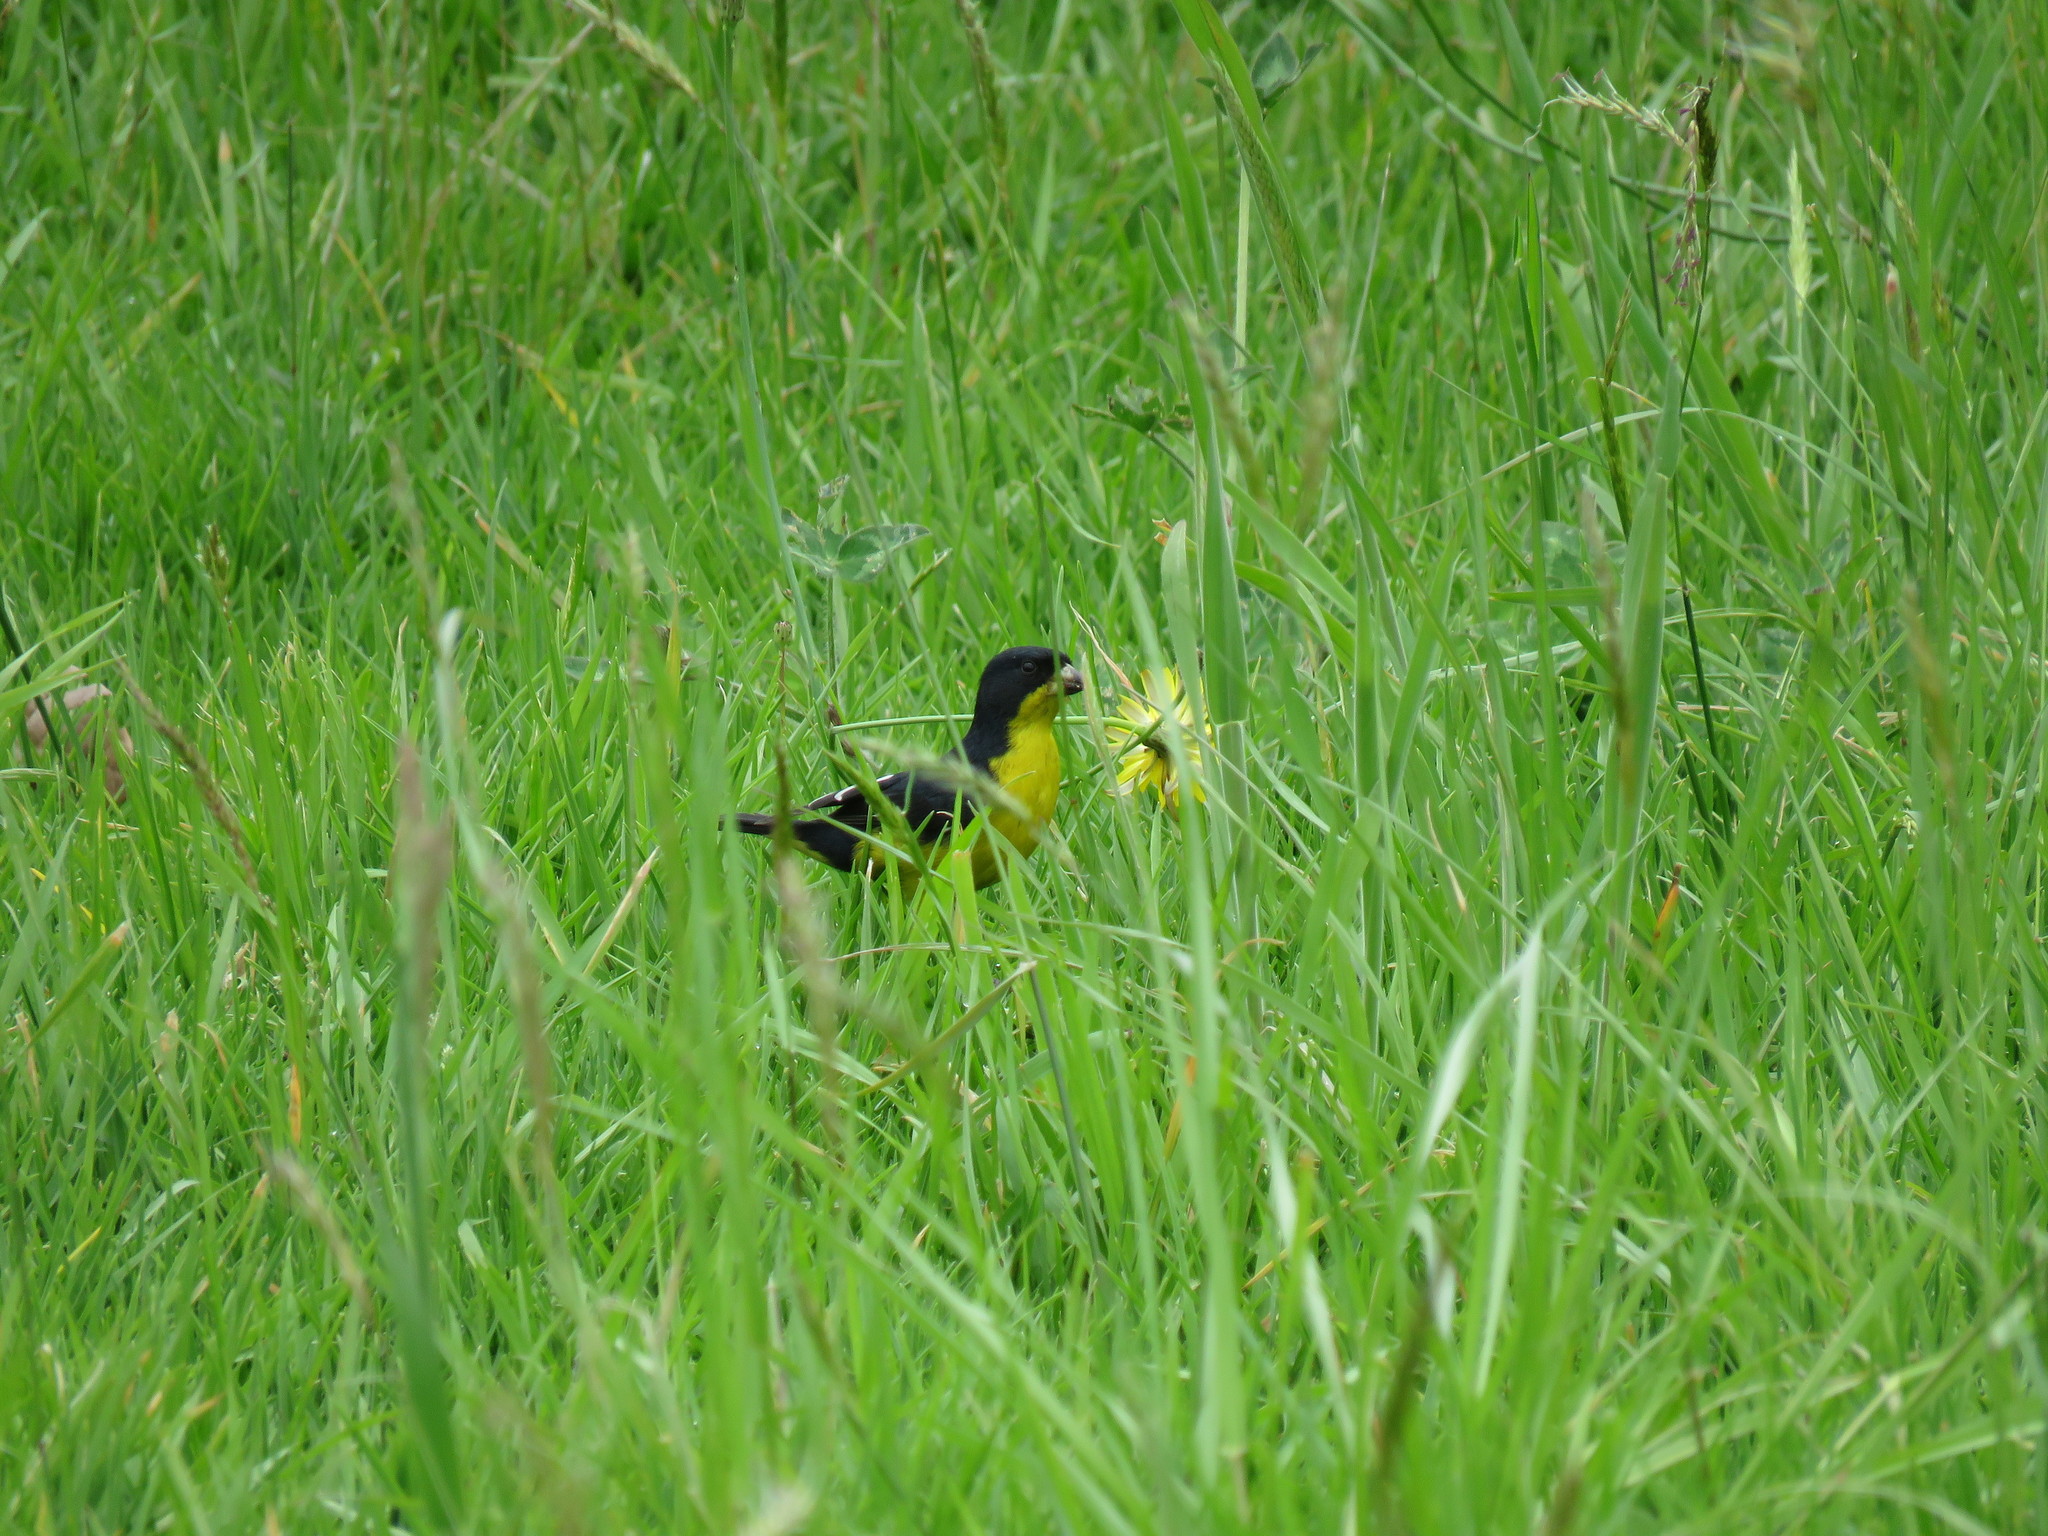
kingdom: Animalia
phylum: Chordata
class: Aves
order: Passeriformes
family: Fringillidae
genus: Spinus
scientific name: Spinus psaltria
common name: Lesser goldfinch
